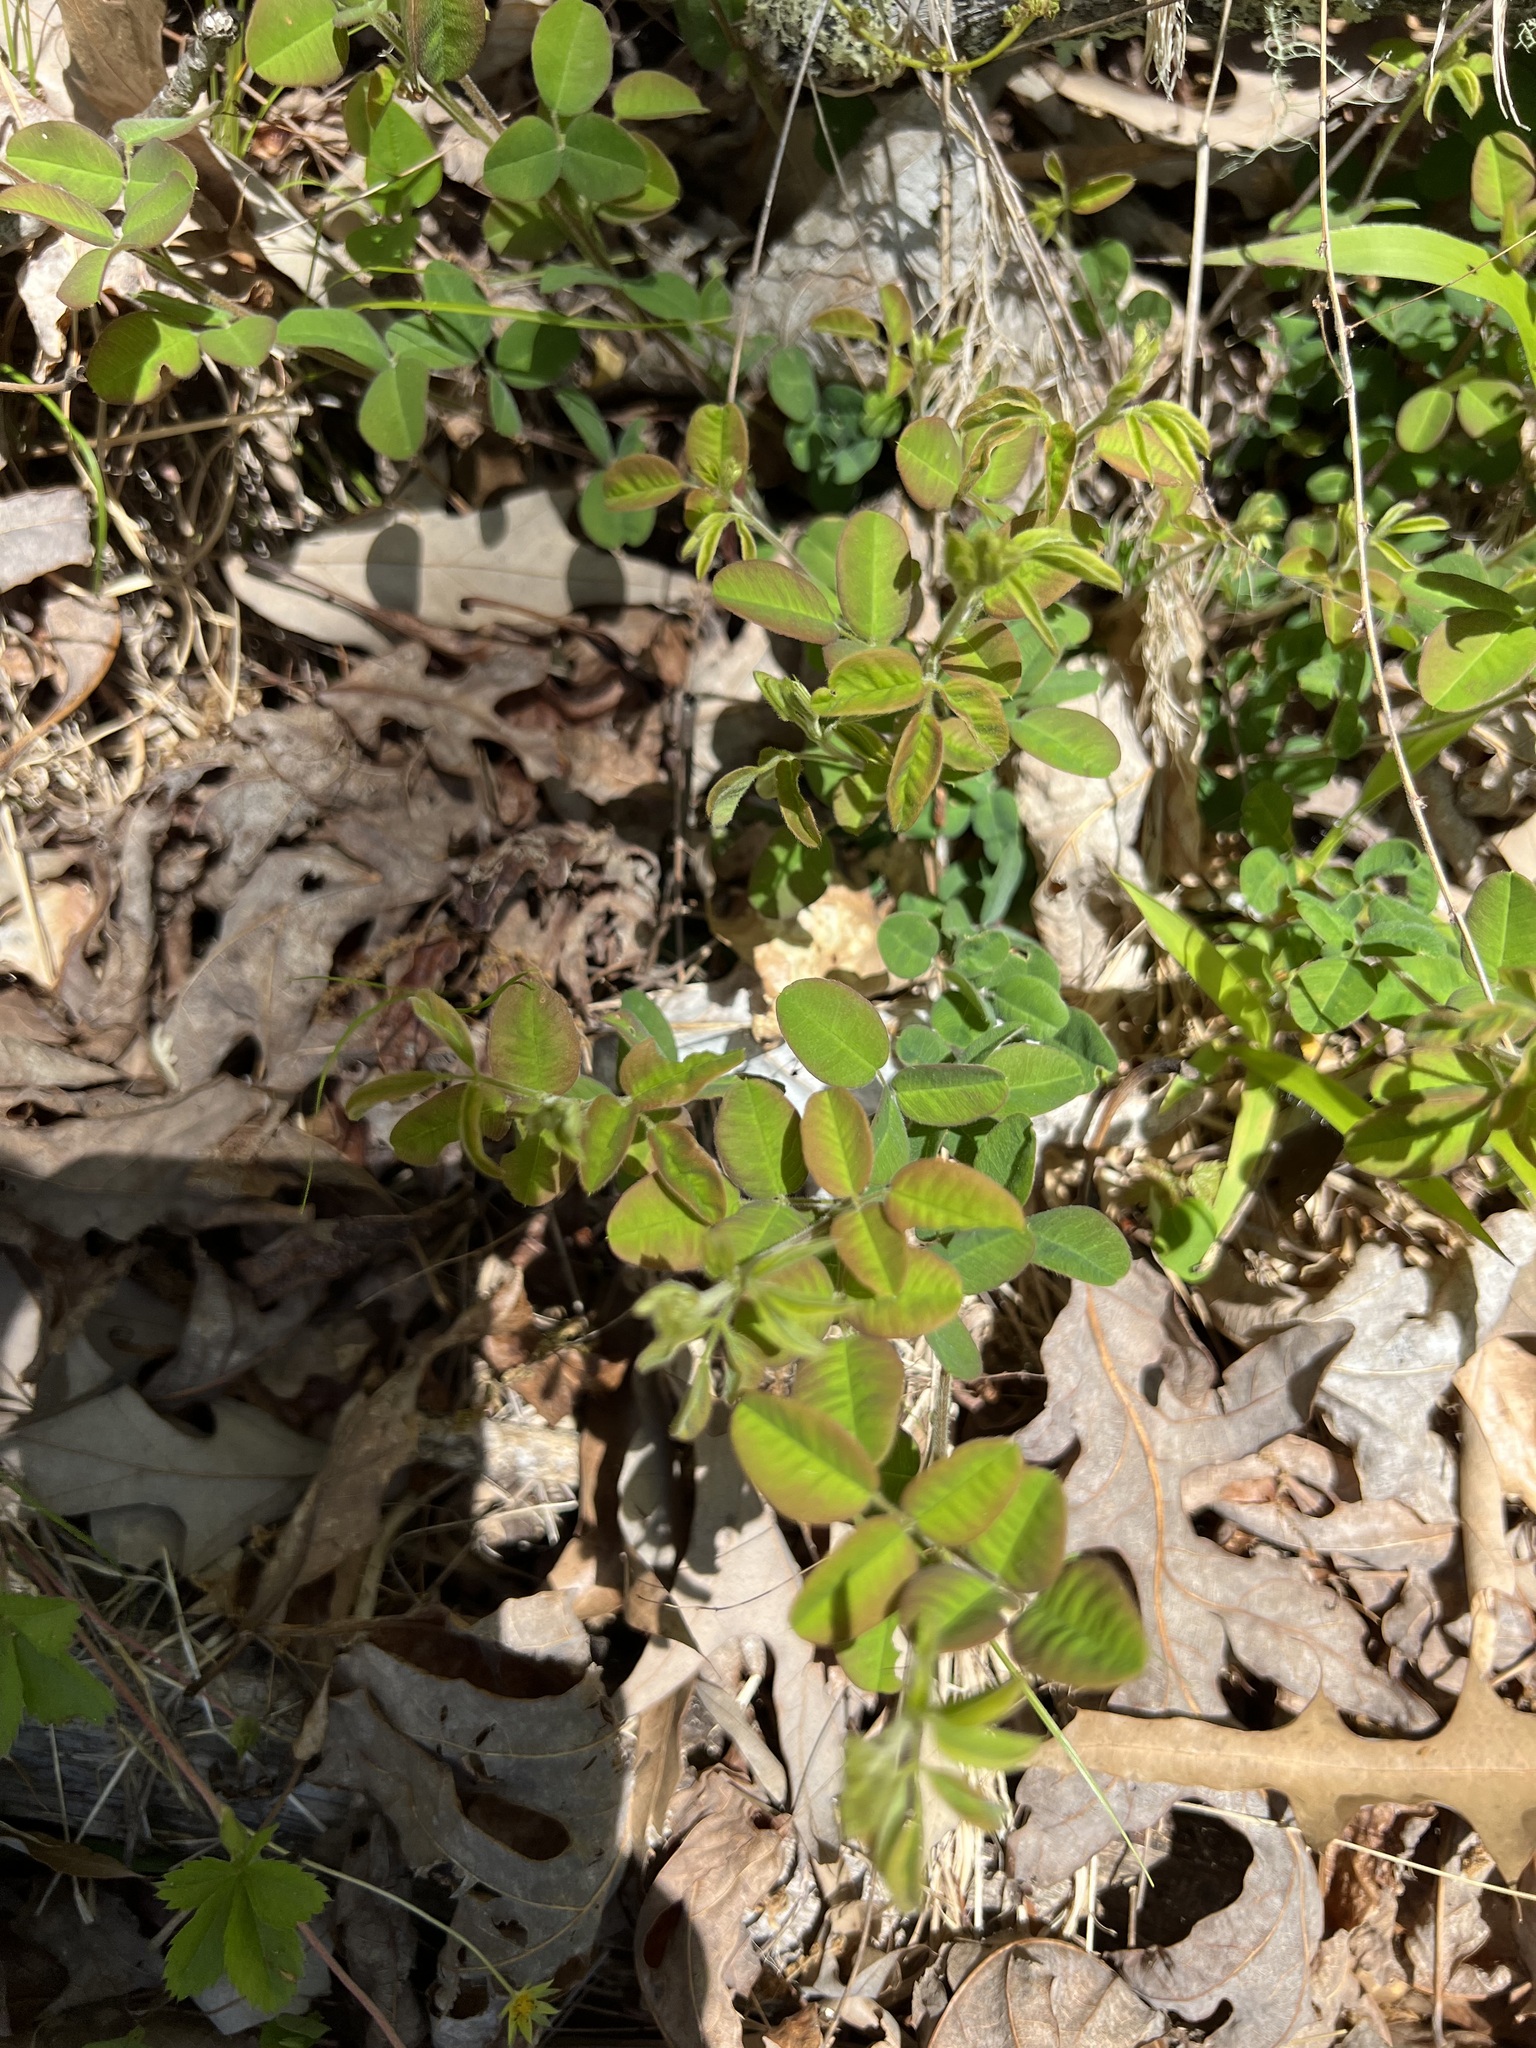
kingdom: Plantae
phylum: Tracheophyta
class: Magnoliopsida
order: Fabales
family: Fabaceae
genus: Lespedeza
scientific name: Lespedeza procumbens
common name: Downy trailing bush-clover
